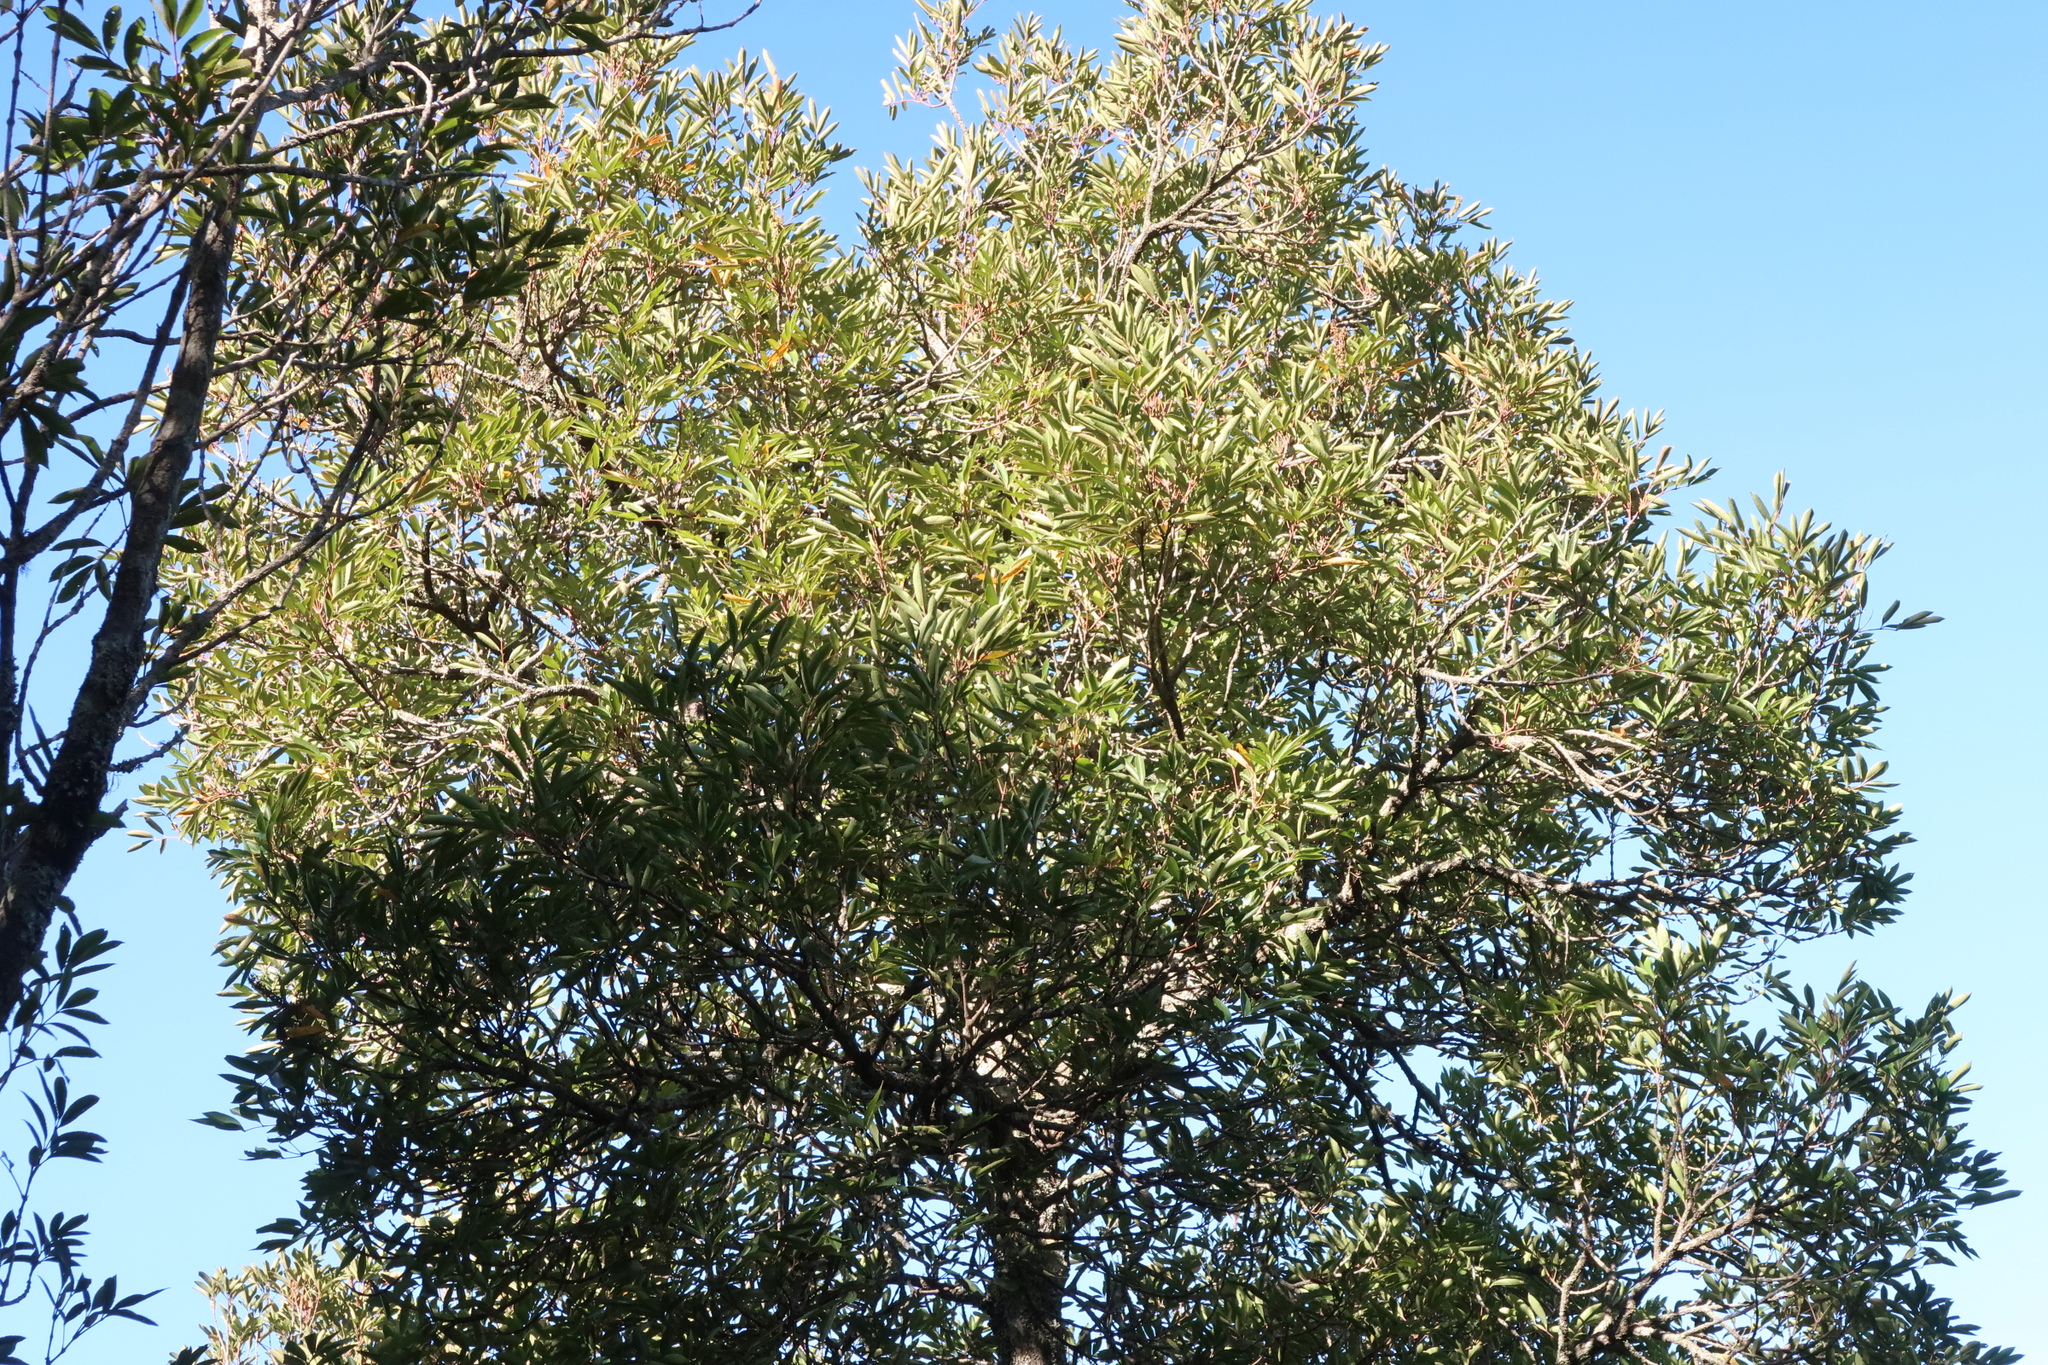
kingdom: Plantae
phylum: Tracheophyta
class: Magnoliopsida
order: Oxalidales
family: Cunoniaceae
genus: Cunonia
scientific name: Cunonia capensis
